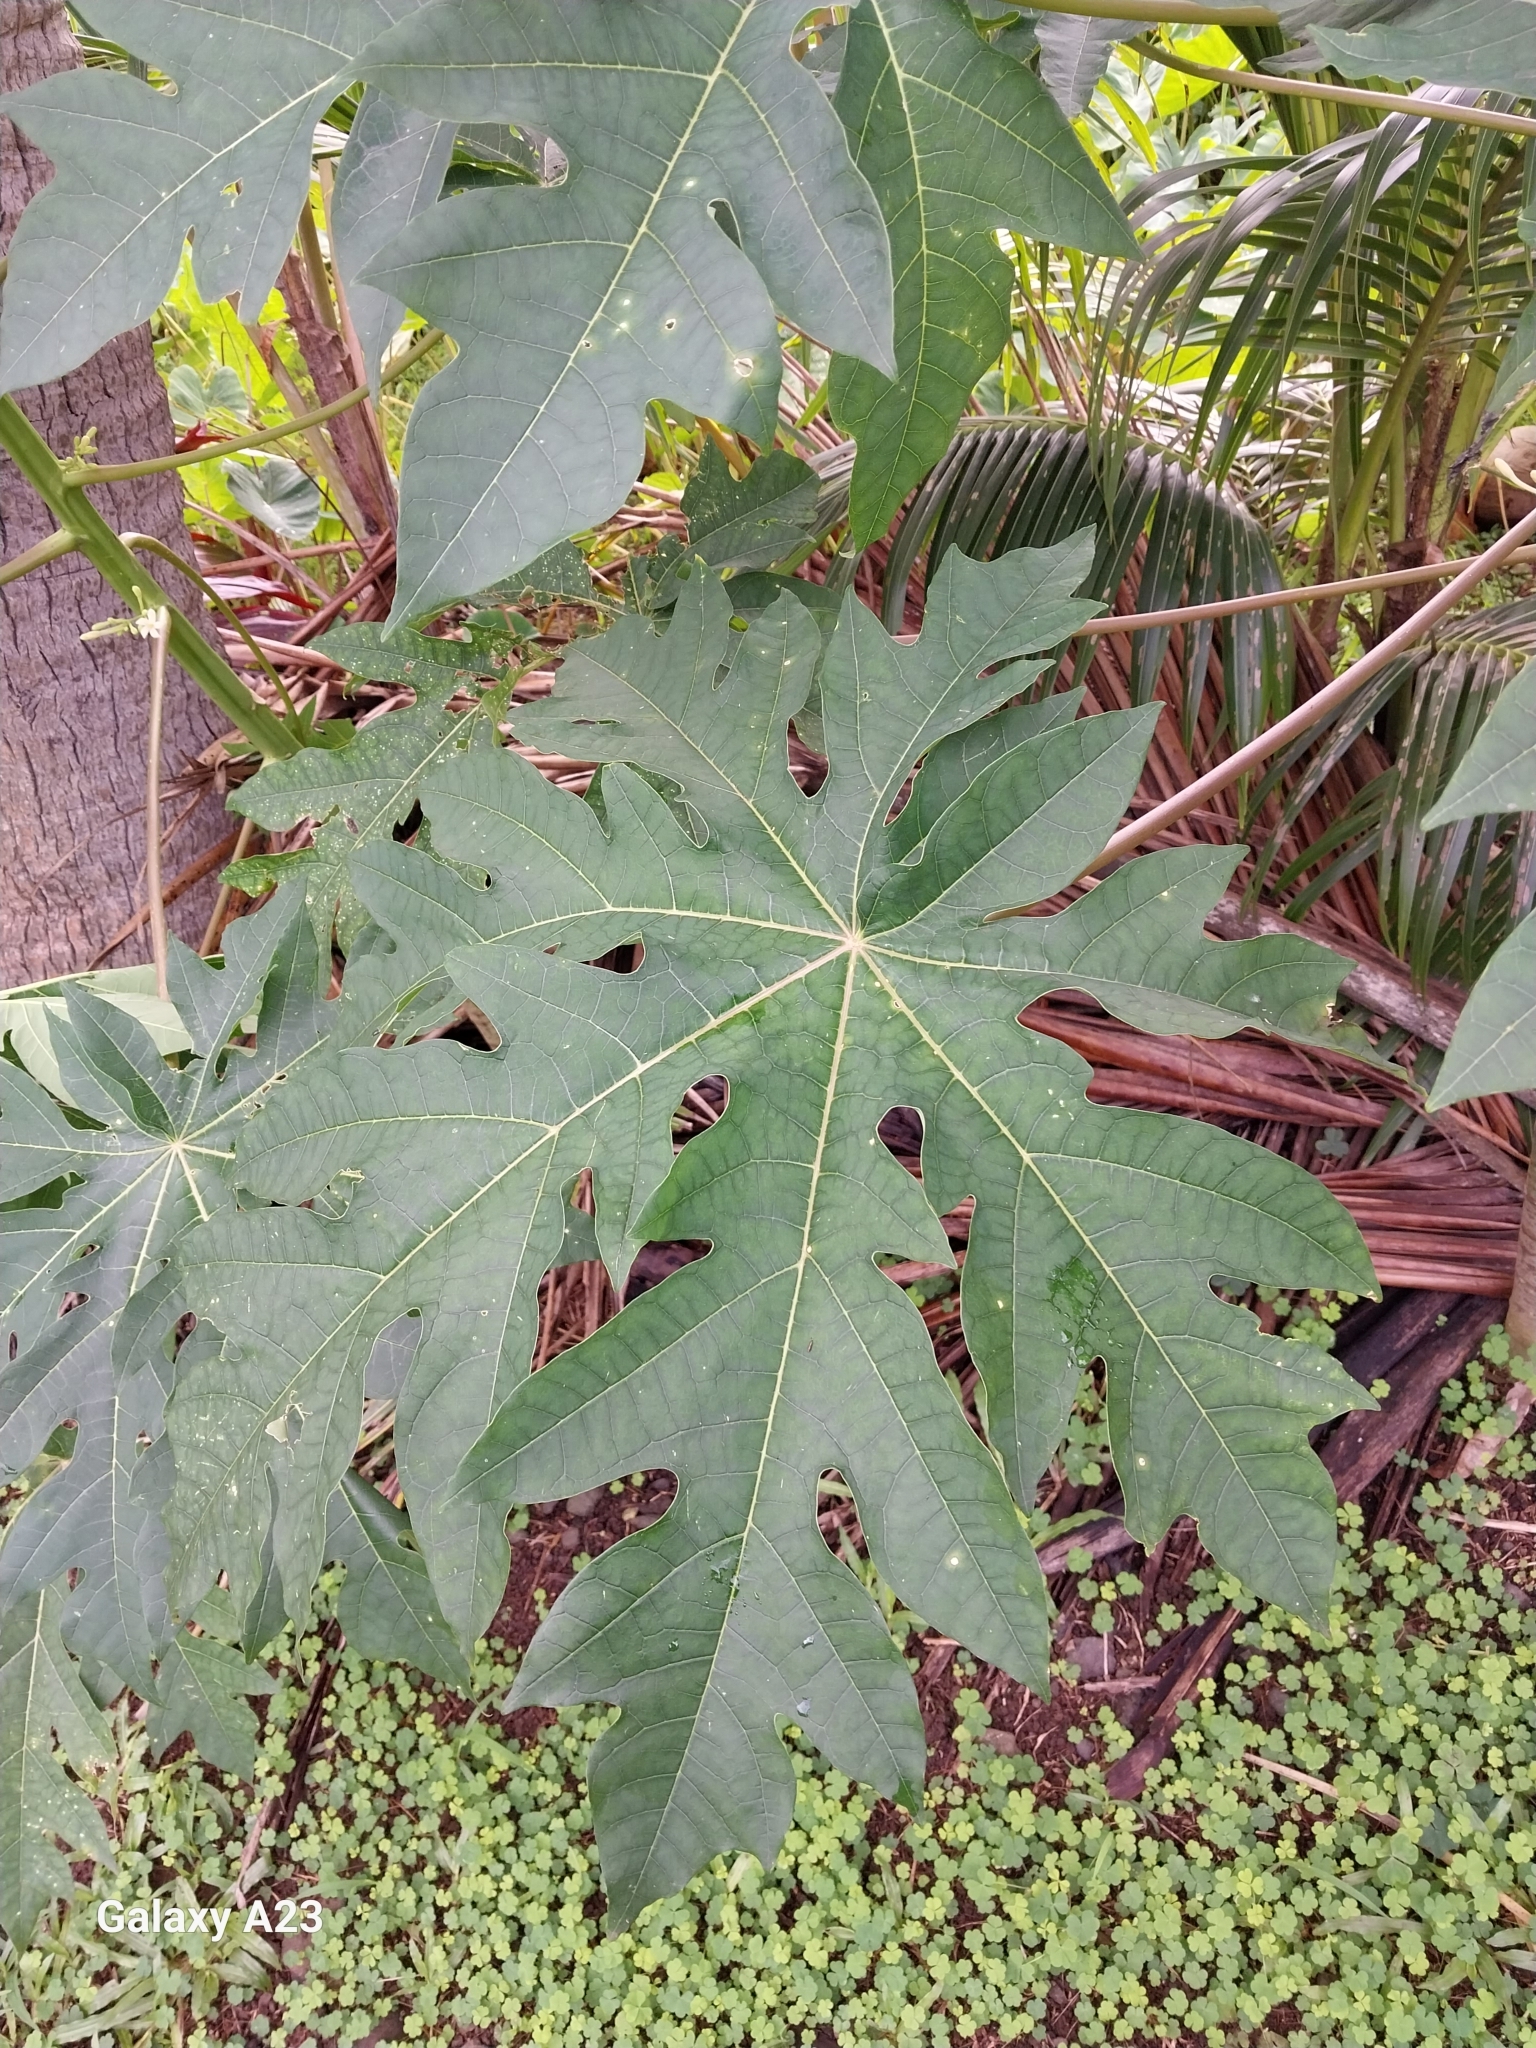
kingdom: Plantae
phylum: Tracheophyta
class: Magnoliopsida
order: Brassicales
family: Caricaceae
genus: Carica
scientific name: Carica papaya
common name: Papaya
